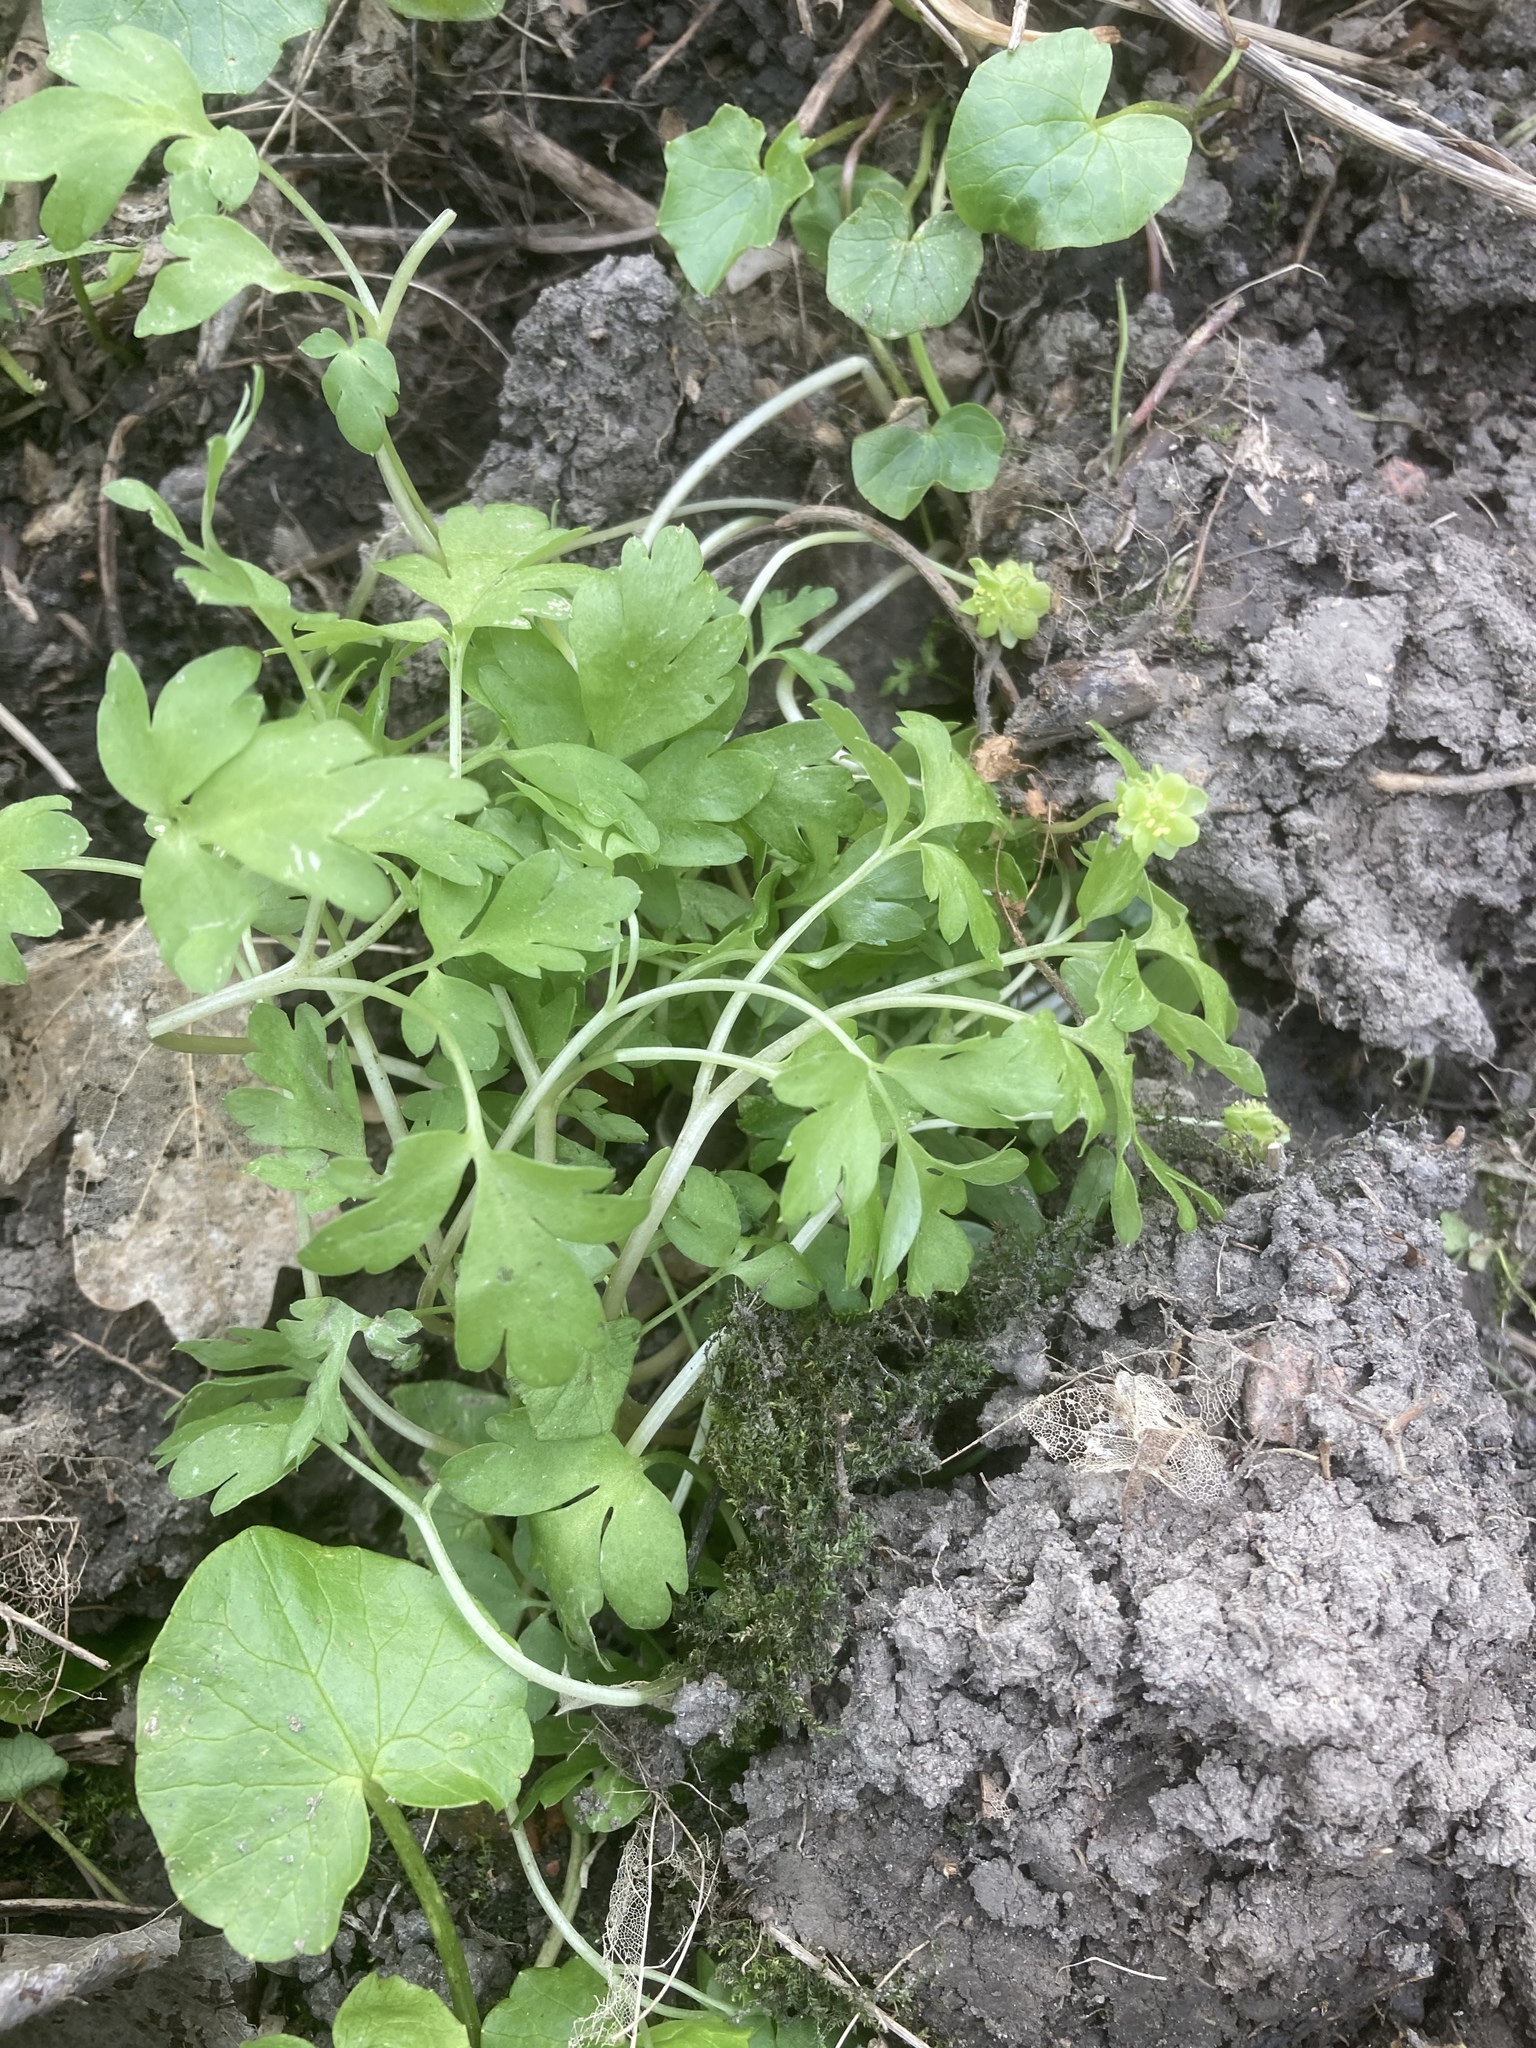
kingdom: Plantae
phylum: Tracheophyta
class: Magnoliopsida
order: Dipsacales
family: Viburnaceae
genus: Adoxa
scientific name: Adoxa moschatellina
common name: Moschatel
